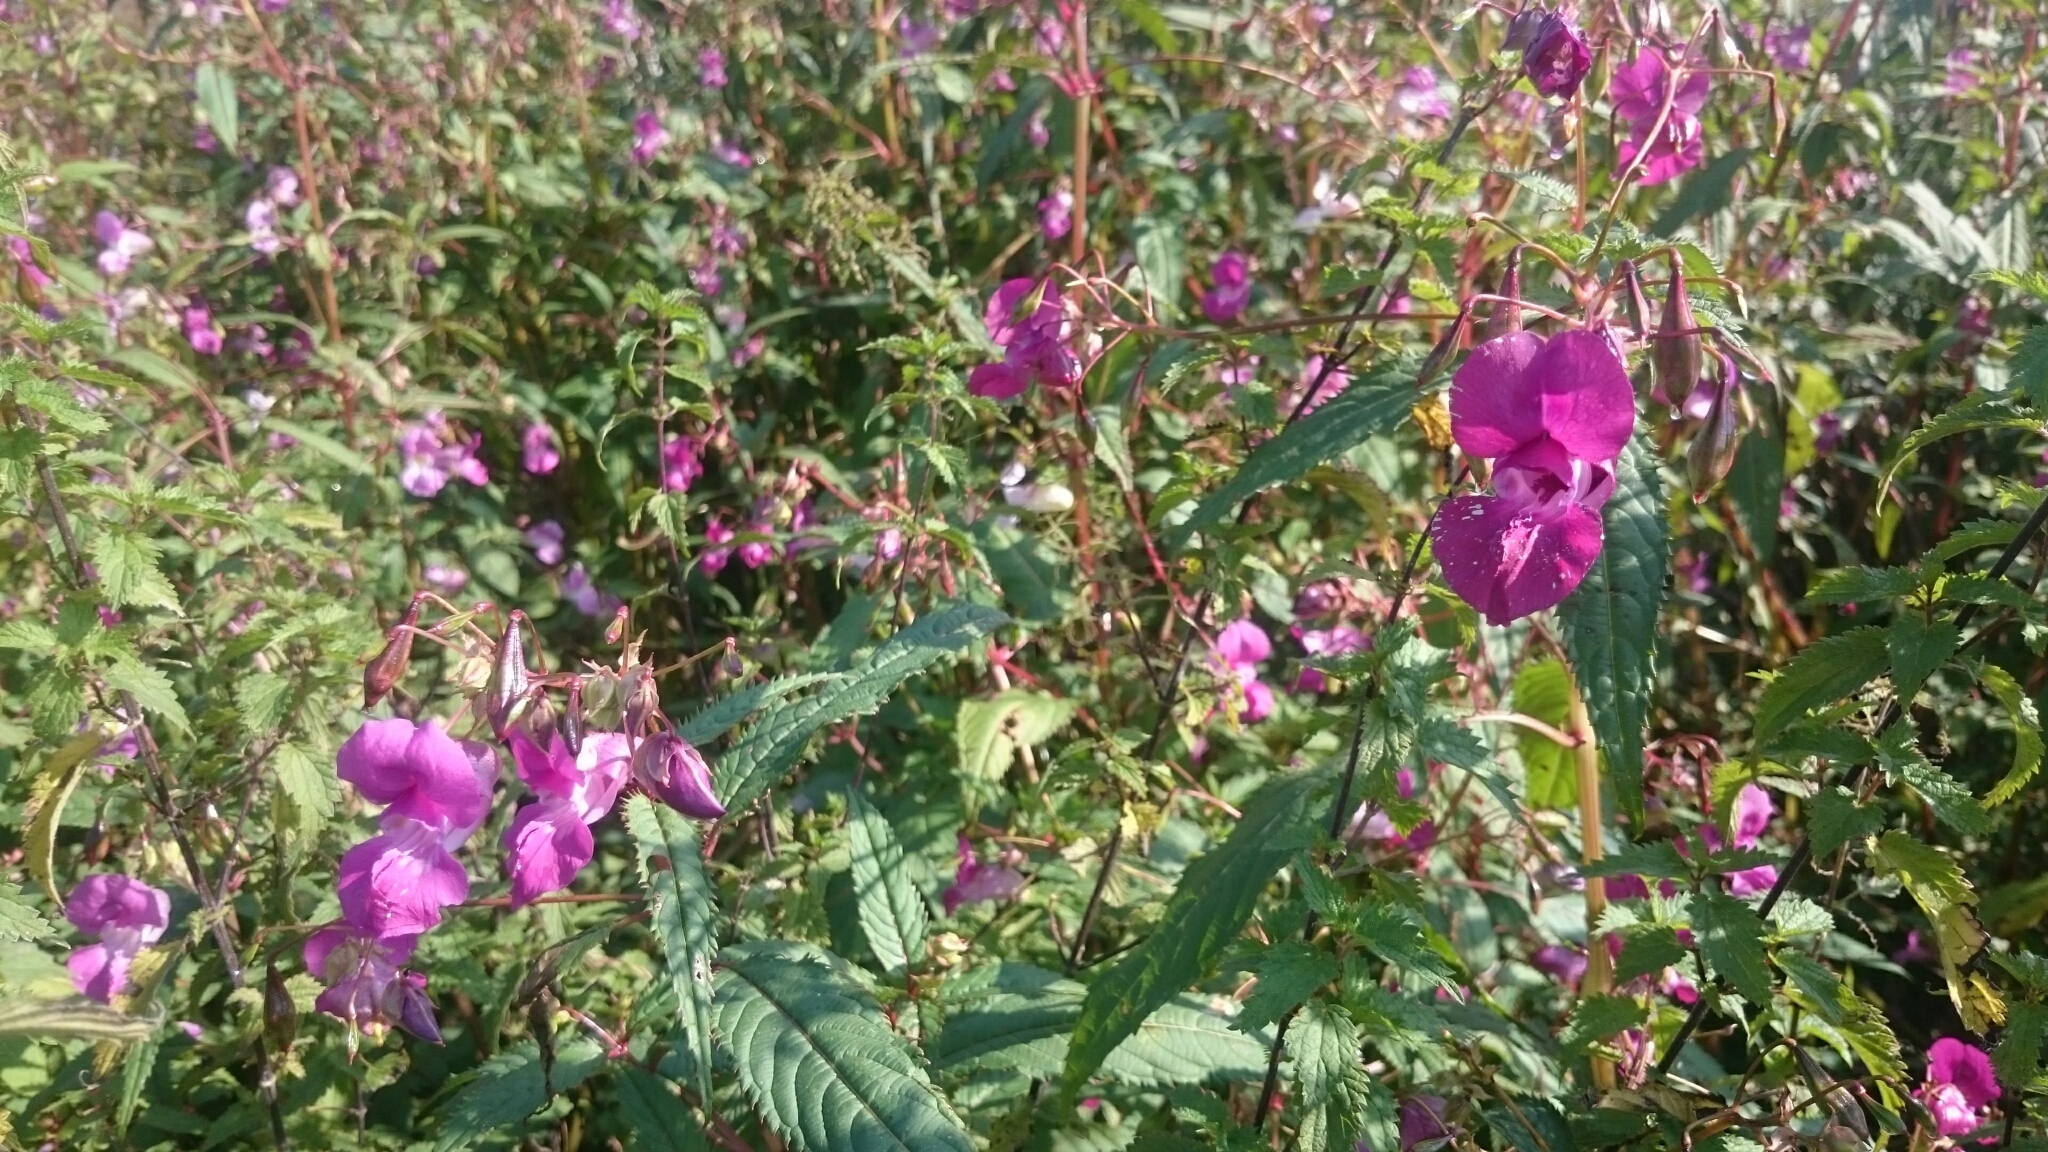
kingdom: Plantae
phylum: Tracheophyta
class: Magnoliopsida
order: Ericales
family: Balsaminaceae
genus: Impatiens
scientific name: Impatiens glandulifera
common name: Himalayan balsam
